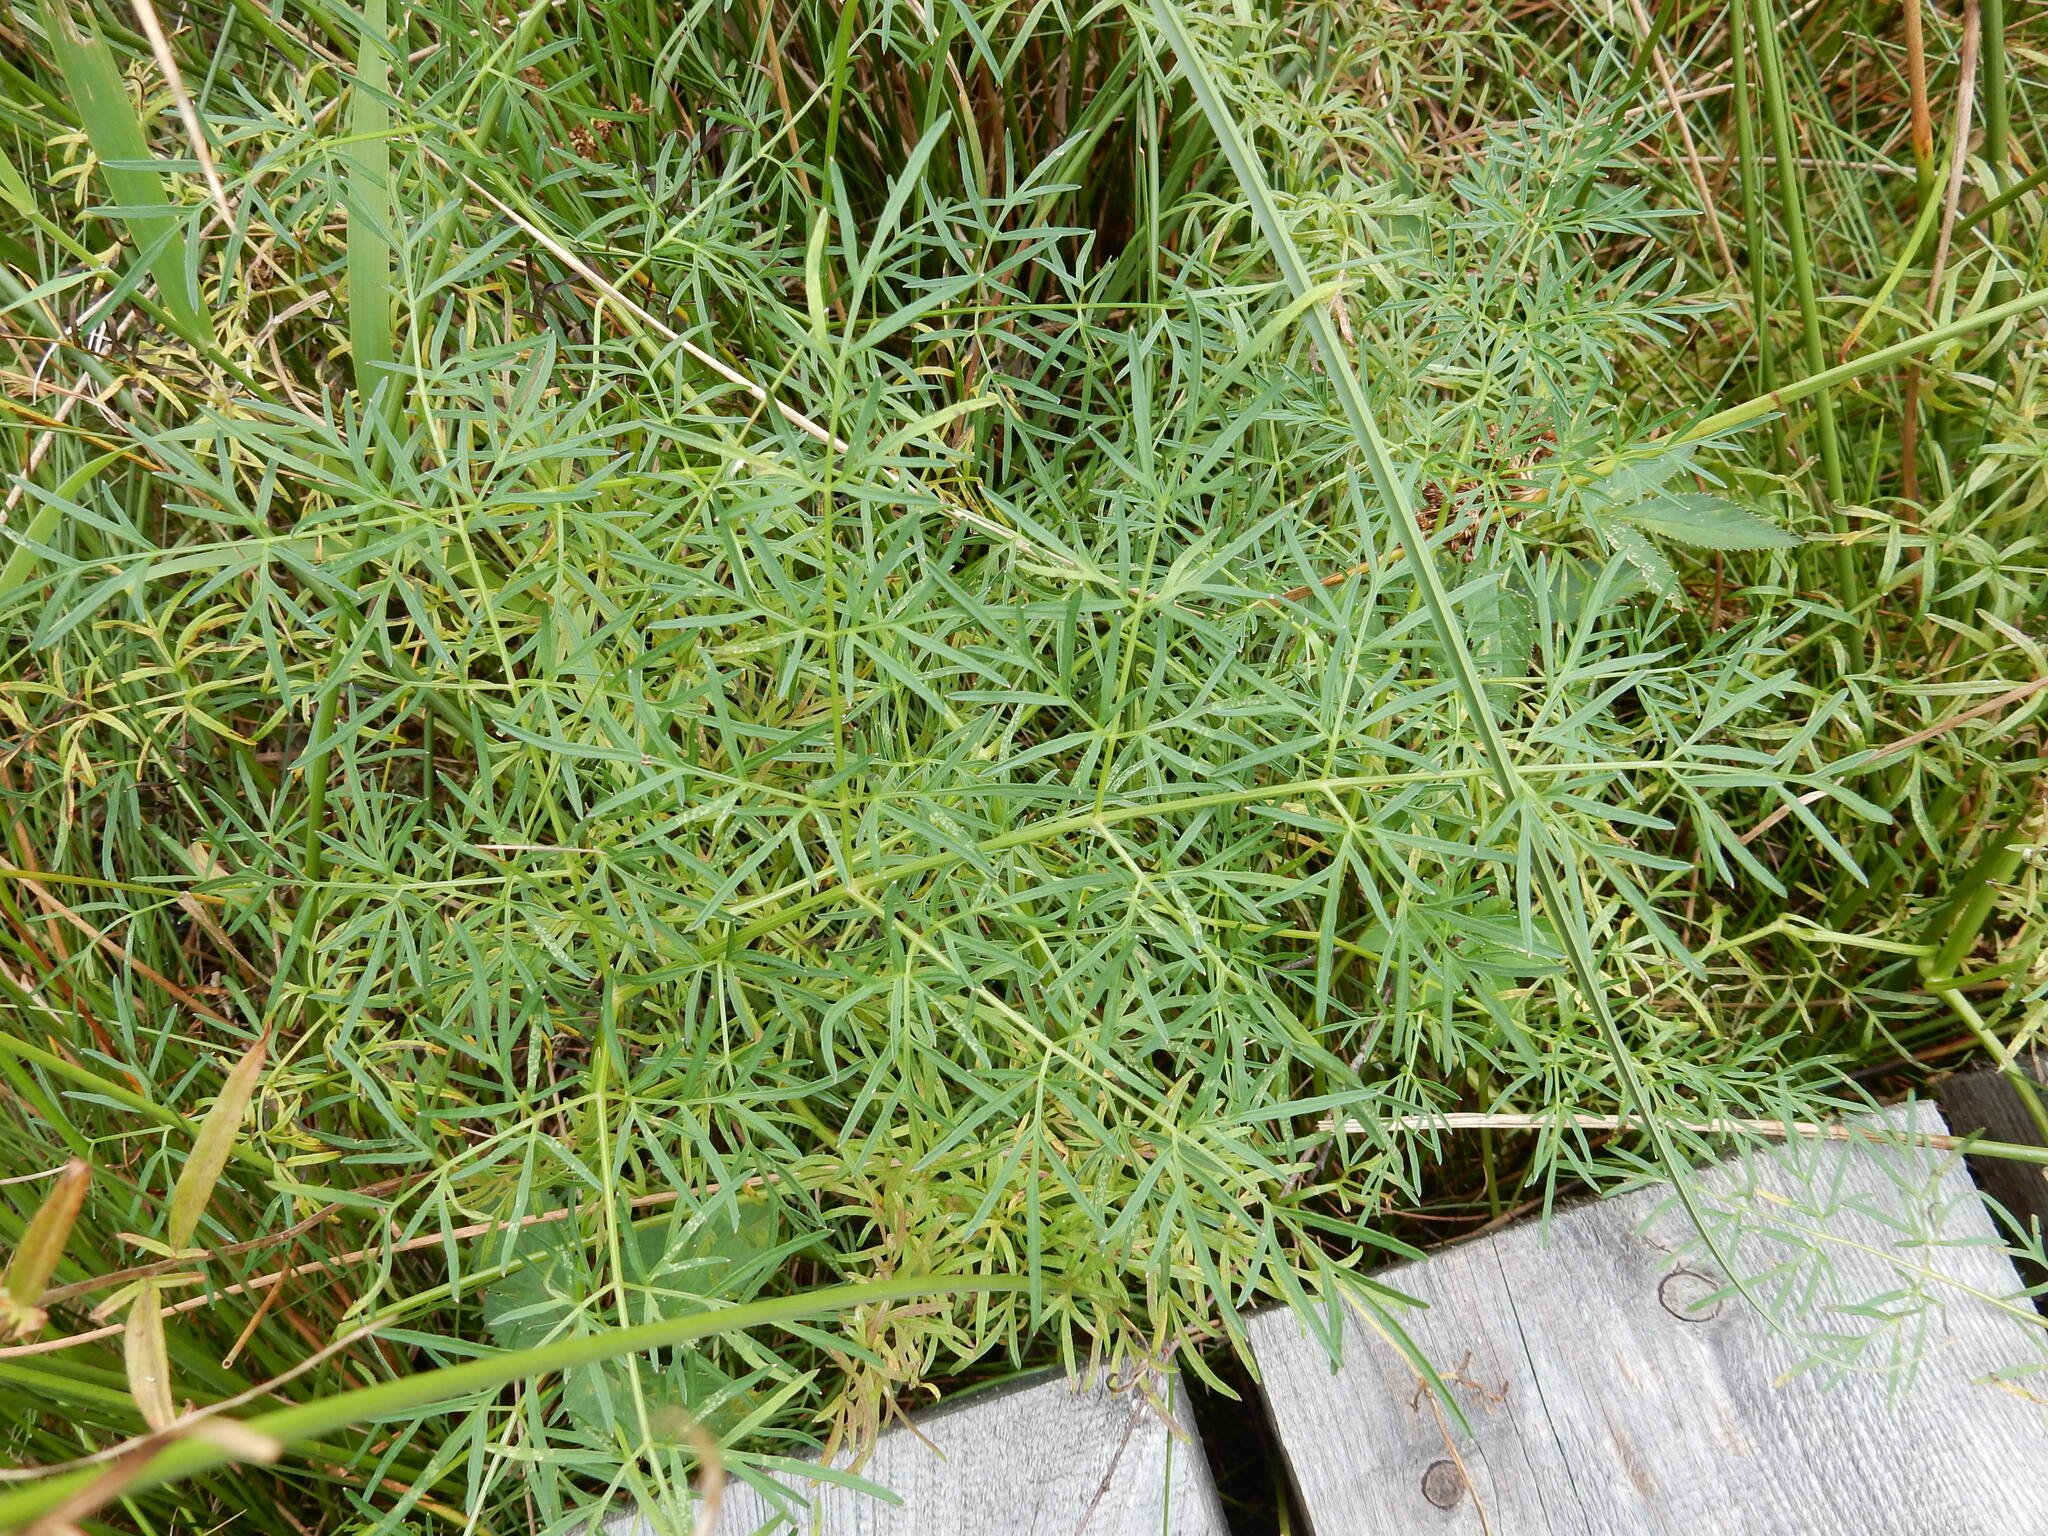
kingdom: Plantae
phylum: Tracheophyta
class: Magnoliopsida
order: Apiales
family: Apiaceae
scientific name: Apiaceae
